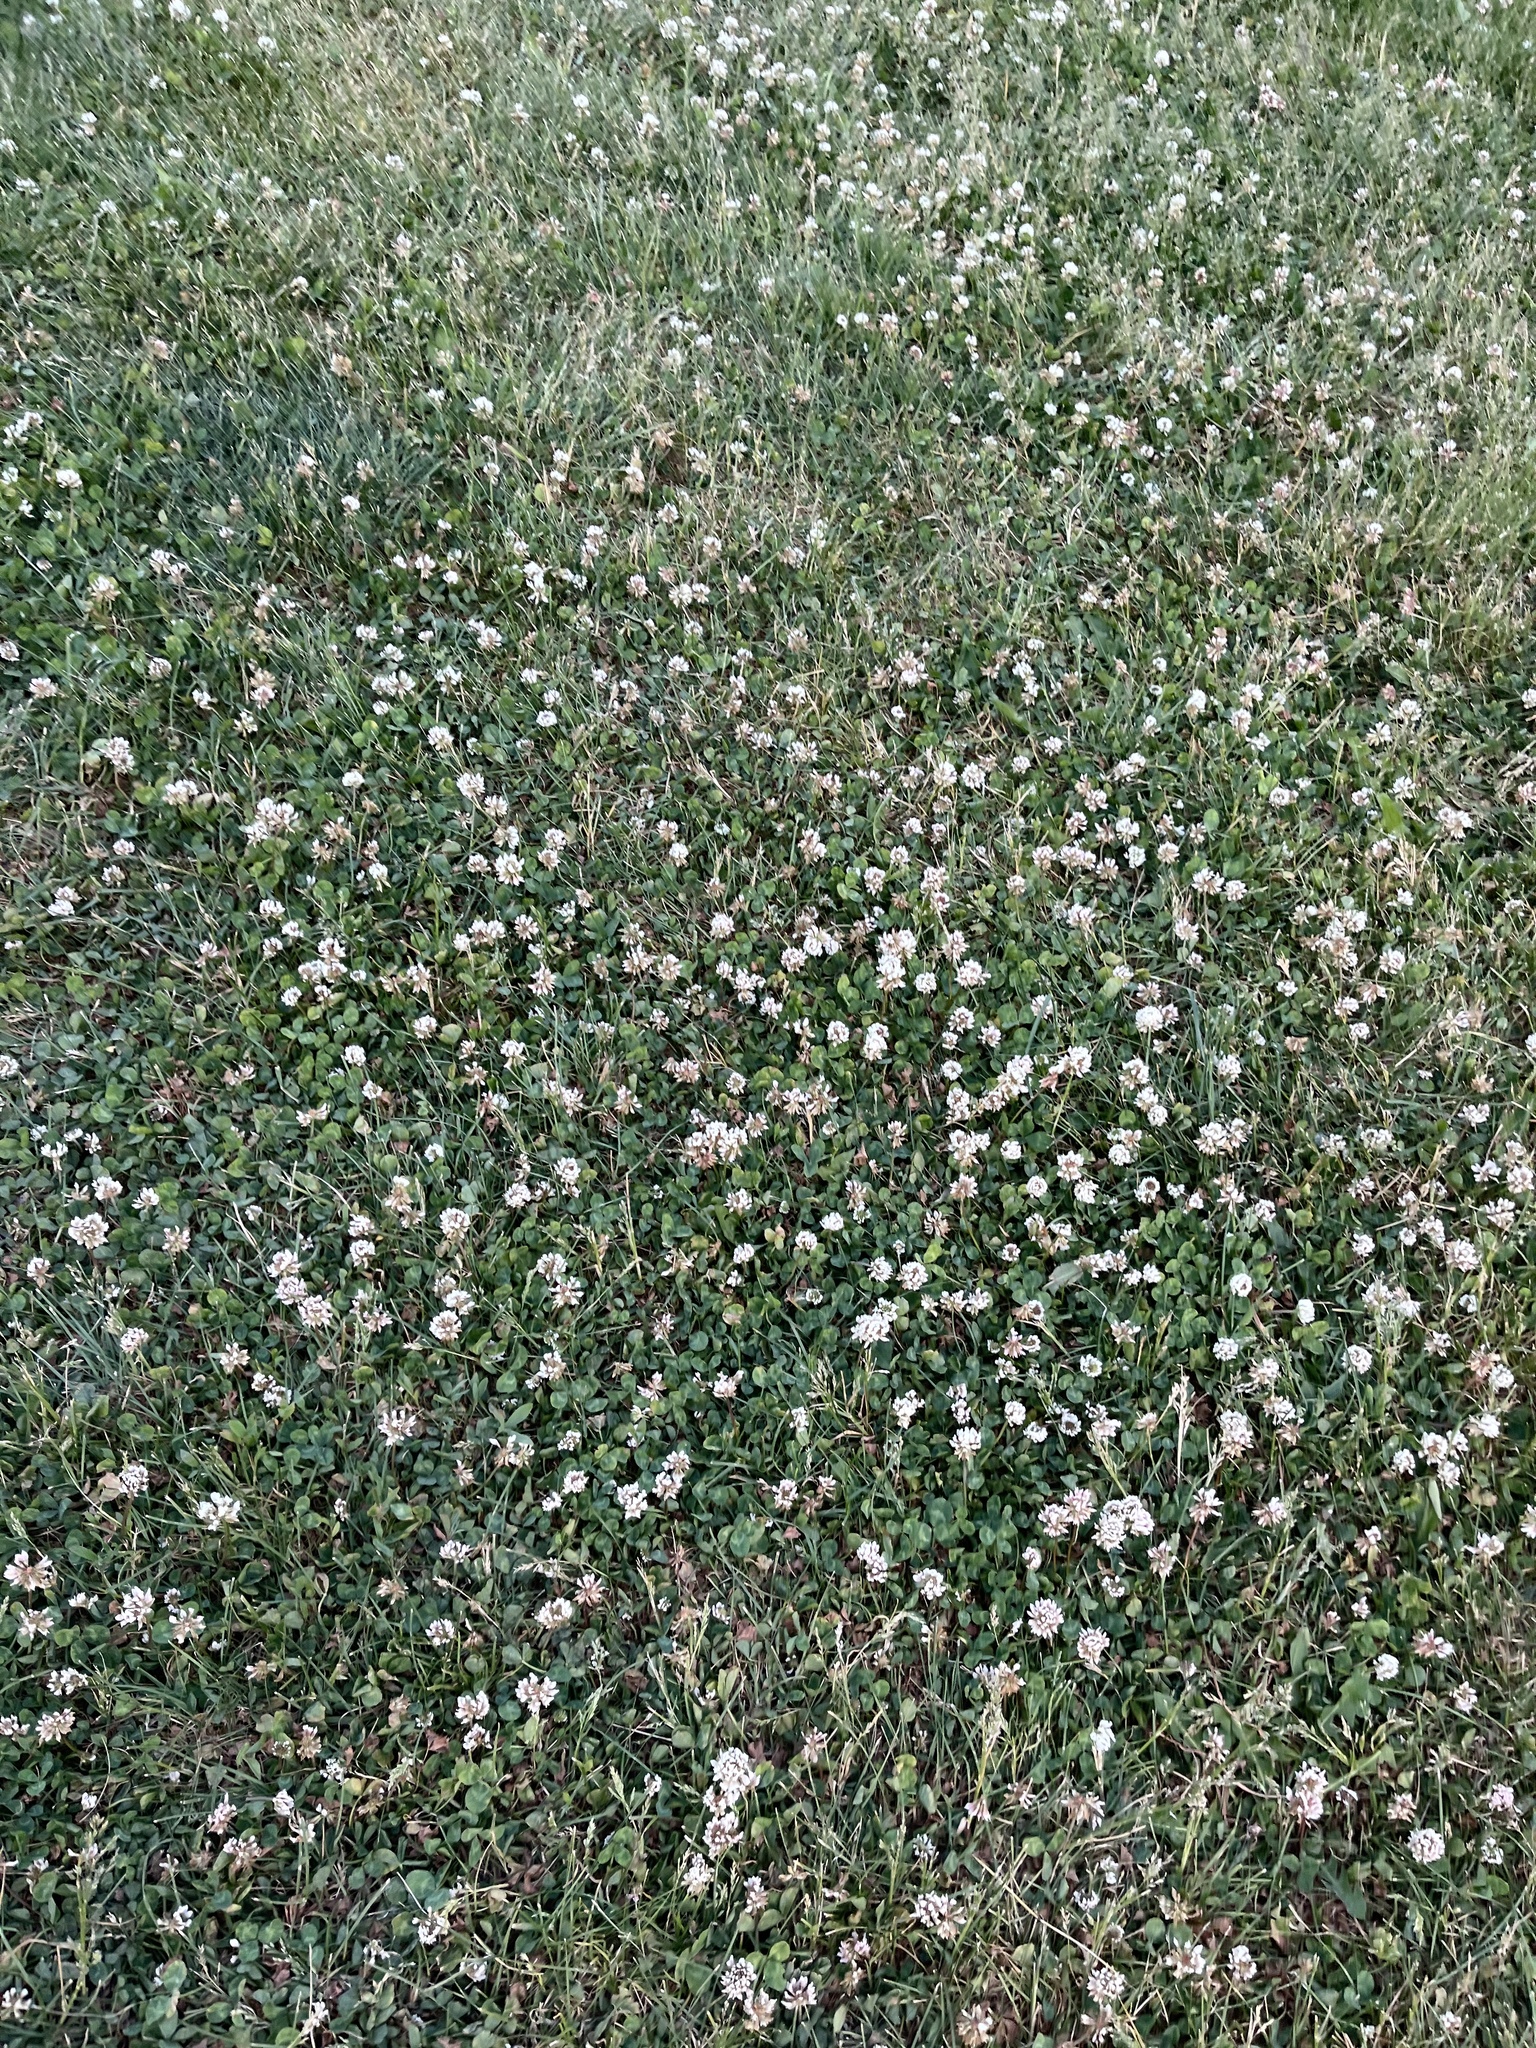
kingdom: Plantae
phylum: Tracheophyta
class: Magnoliopsida
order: Fabales
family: Fabaceae
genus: Trifolium
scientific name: Trifolium repens
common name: White clover
